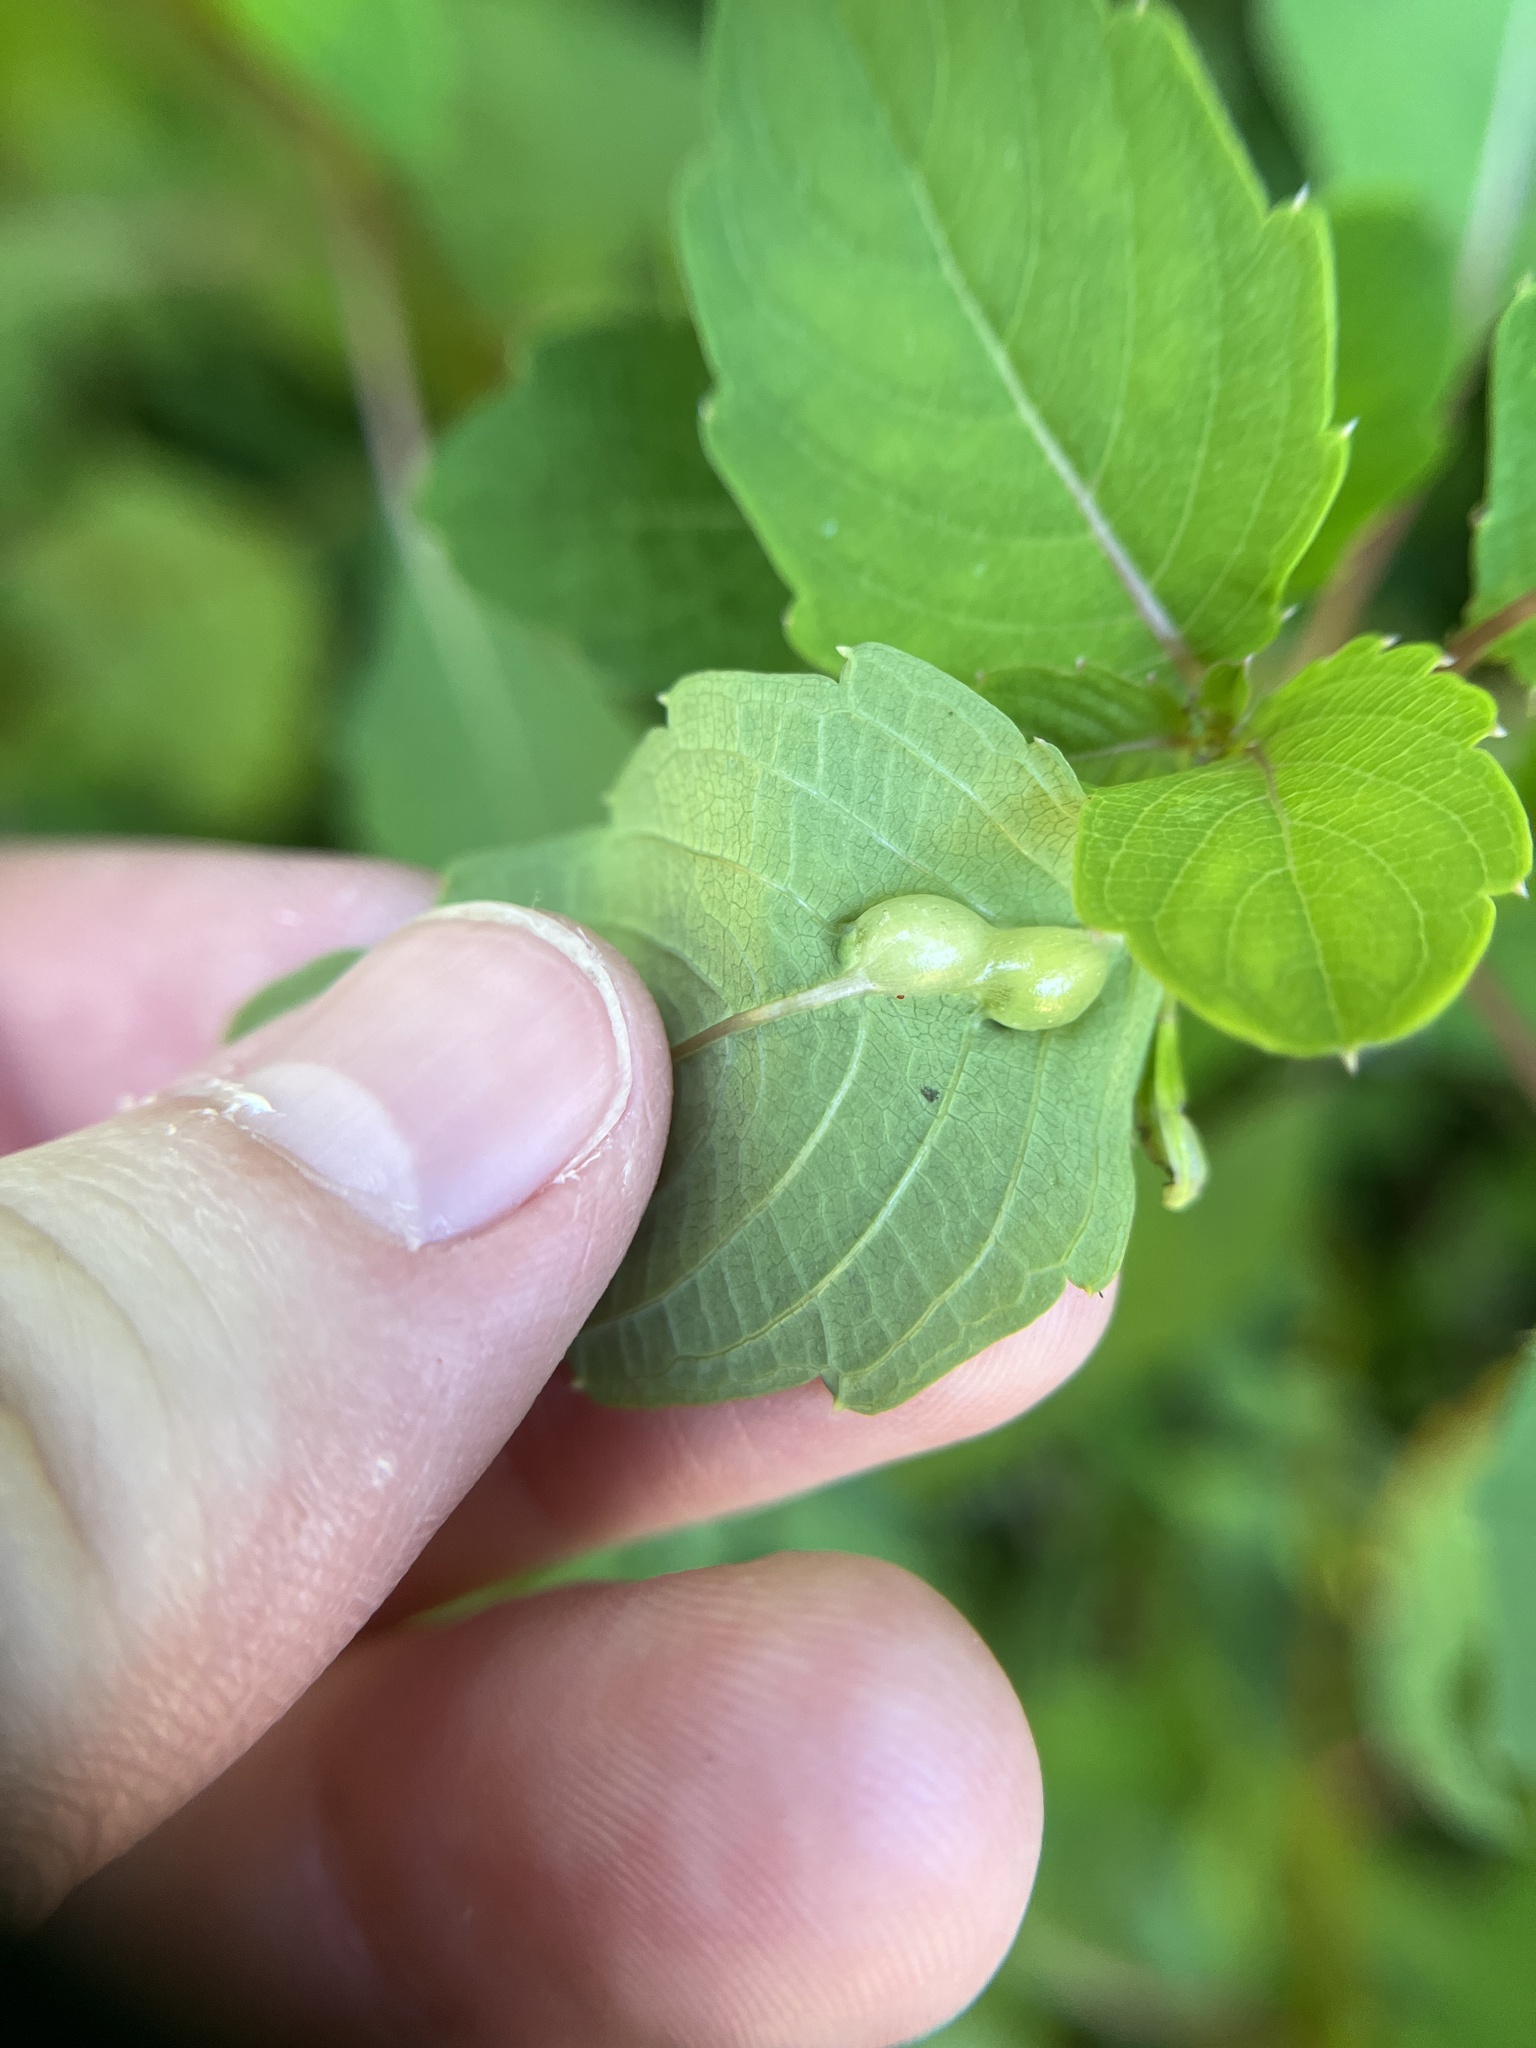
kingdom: Animalia
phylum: Arthropoda
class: Insecta
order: Diptera
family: Cecidomyiidae
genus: Neolasioptera
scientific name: Neolasioptera impatientifolia
